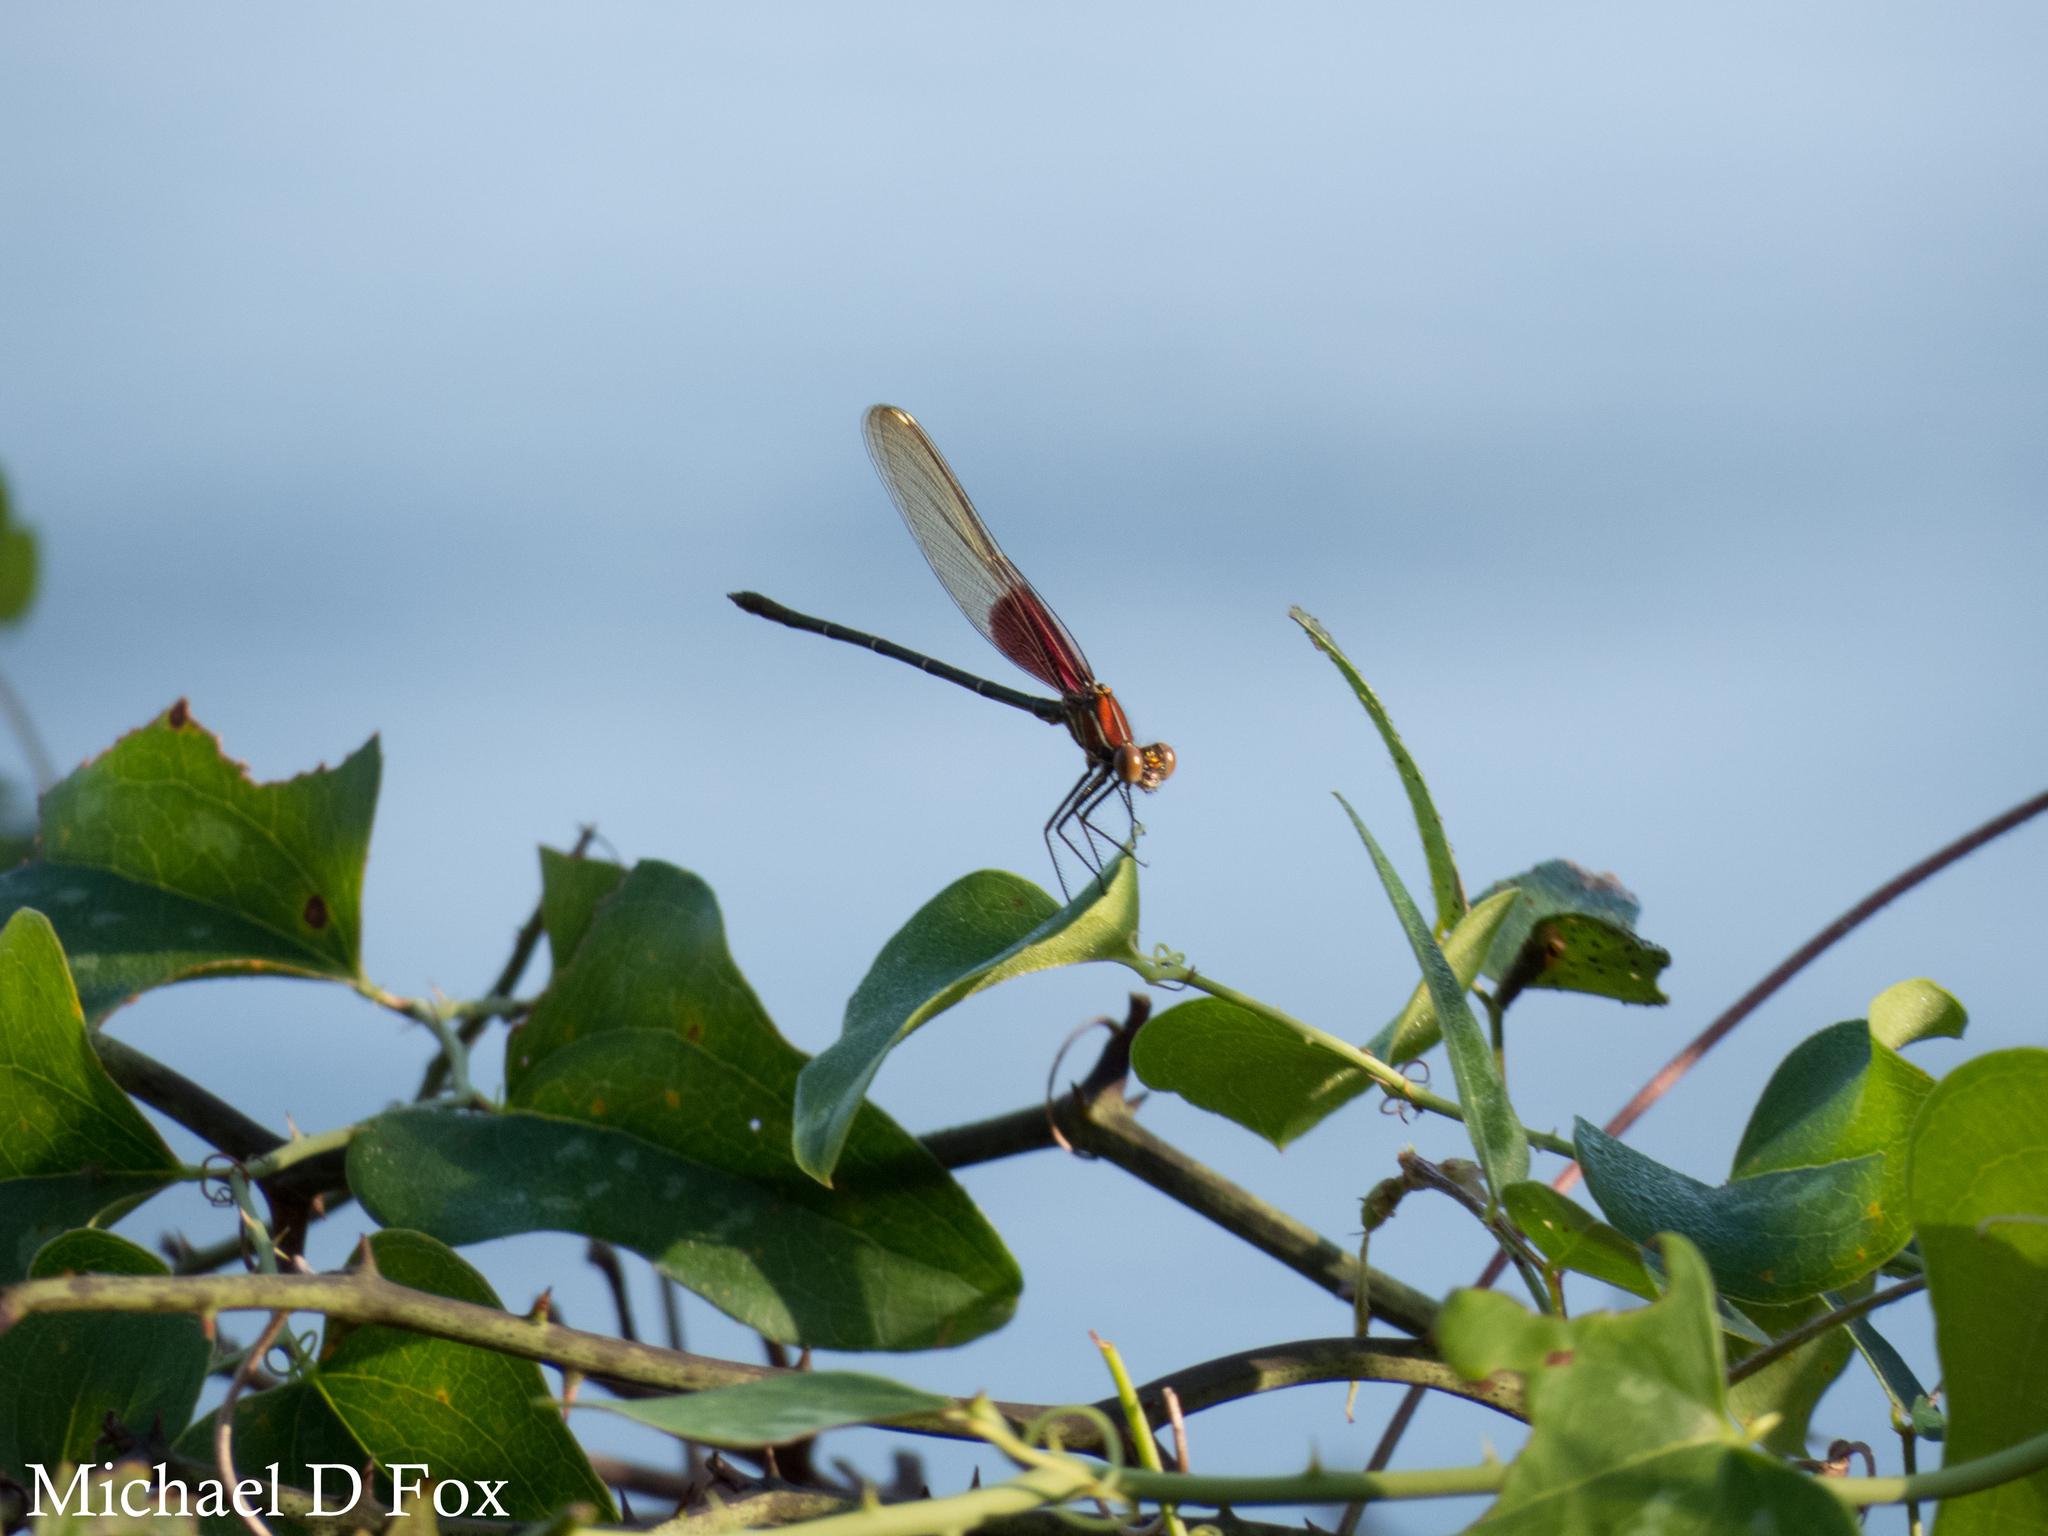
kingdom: Animalia
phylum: Arthropoda
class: Insecta
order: Odonata
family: Calopterygidae
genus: Hetaerina
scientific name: Hetaerina americana
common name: American rubyspot
